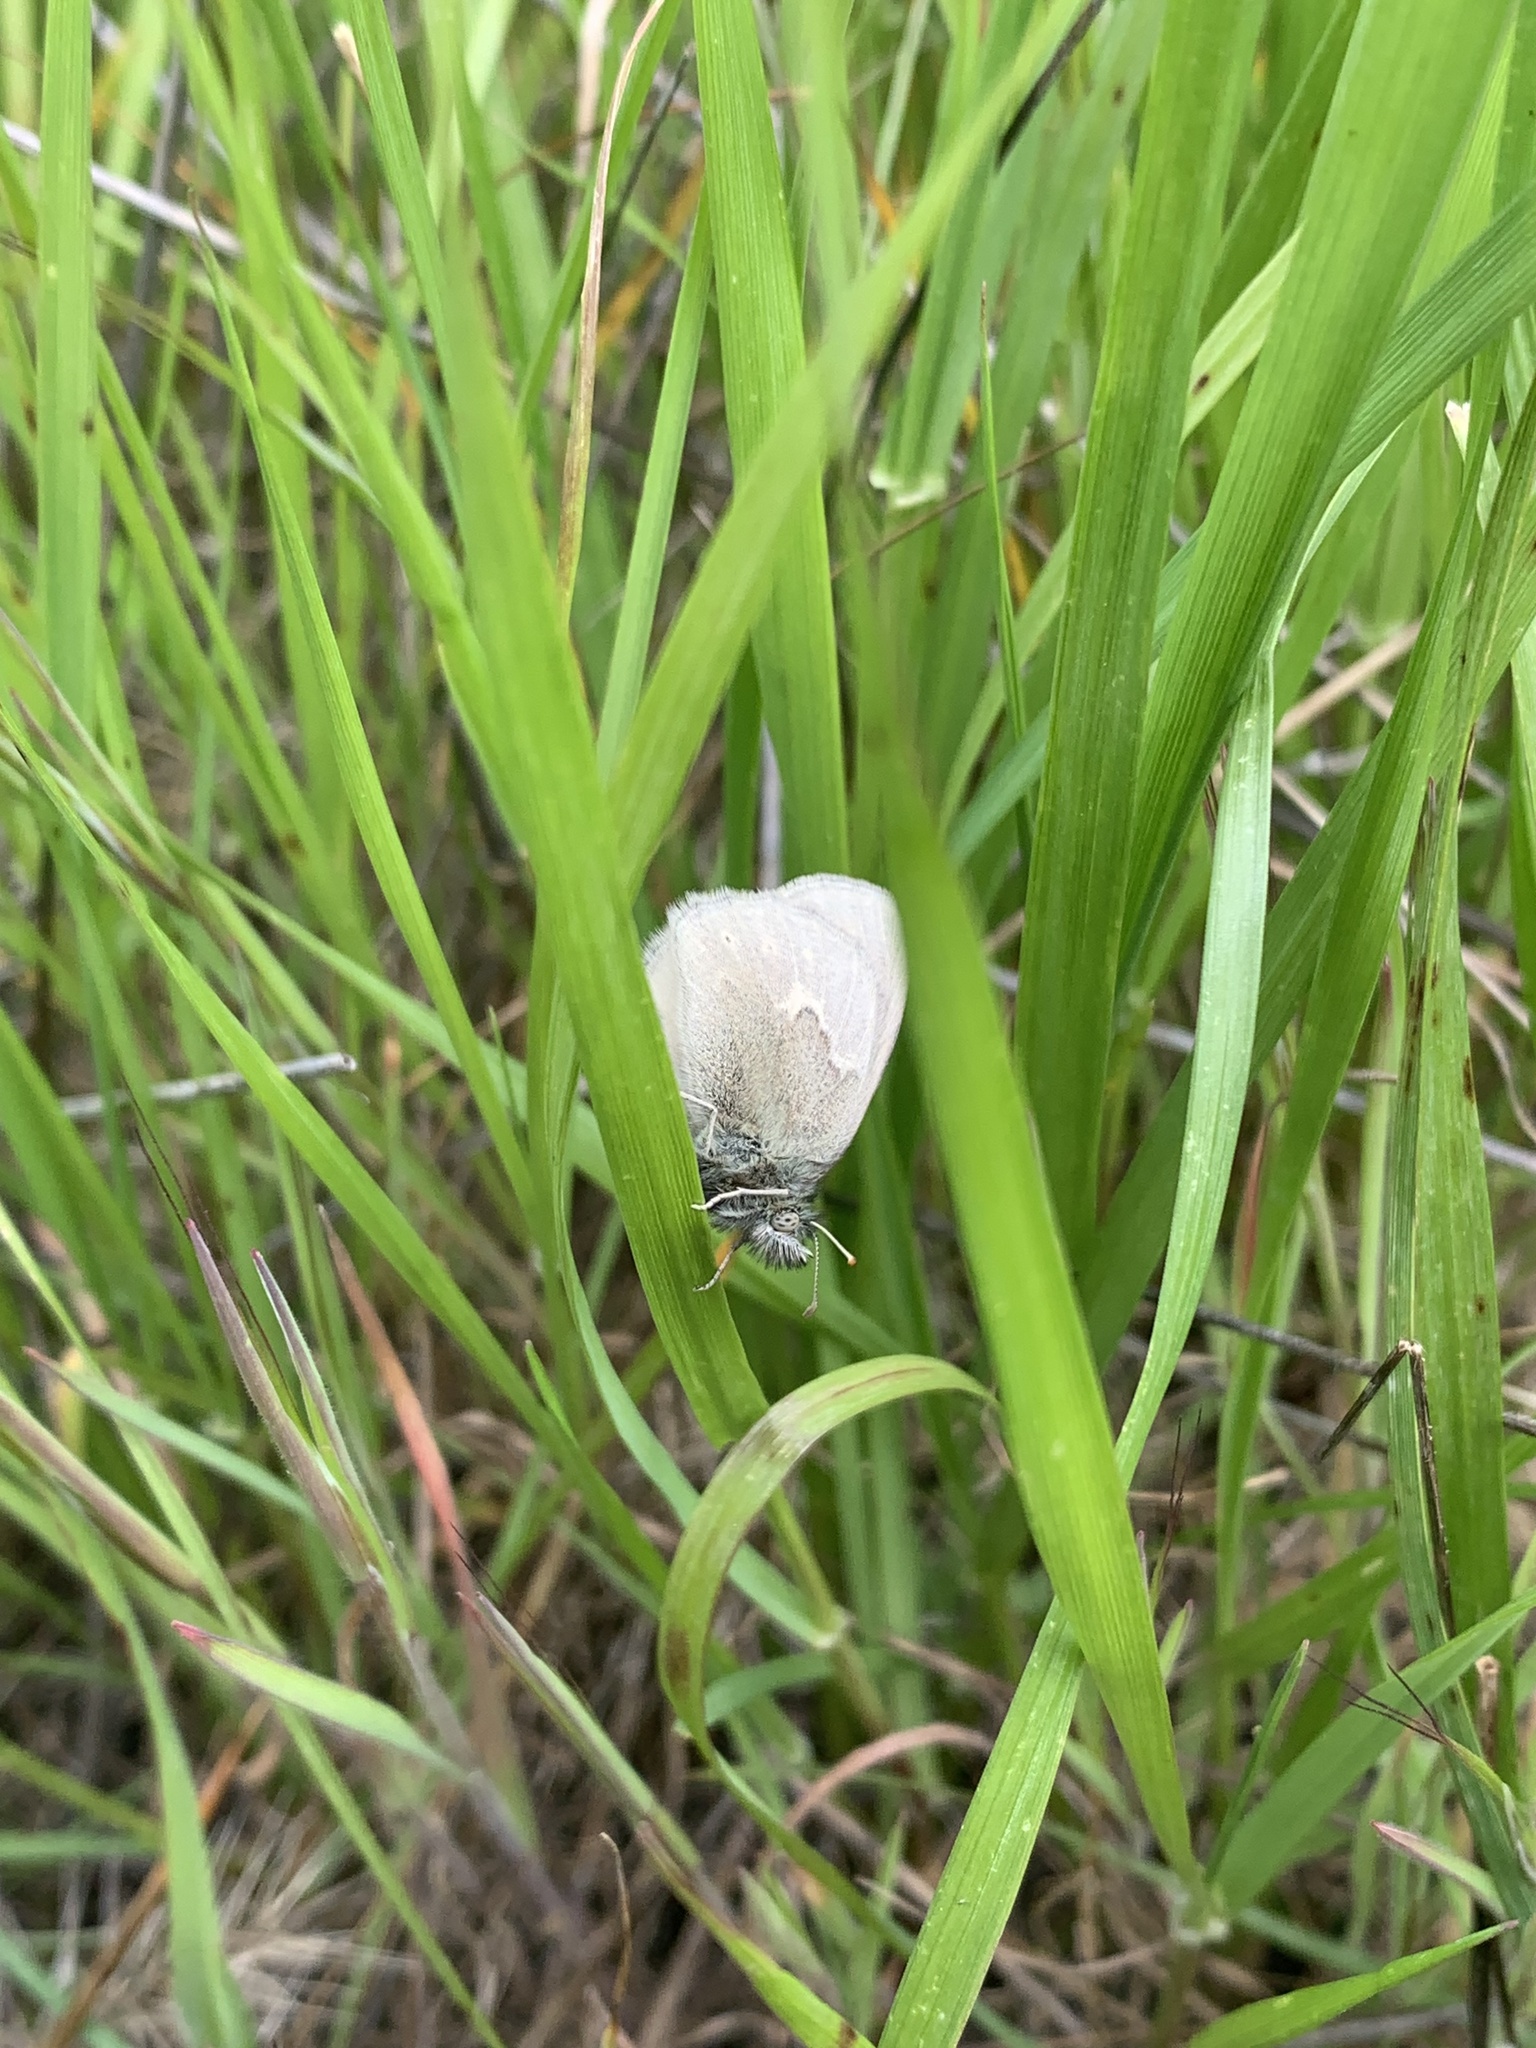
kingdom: Animalia
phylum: Arthropoda
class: Insecta
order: Lepidoptera
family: Nymphalidae
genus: Coenonympha
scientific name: Coenonympha california
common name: Common ringlet
